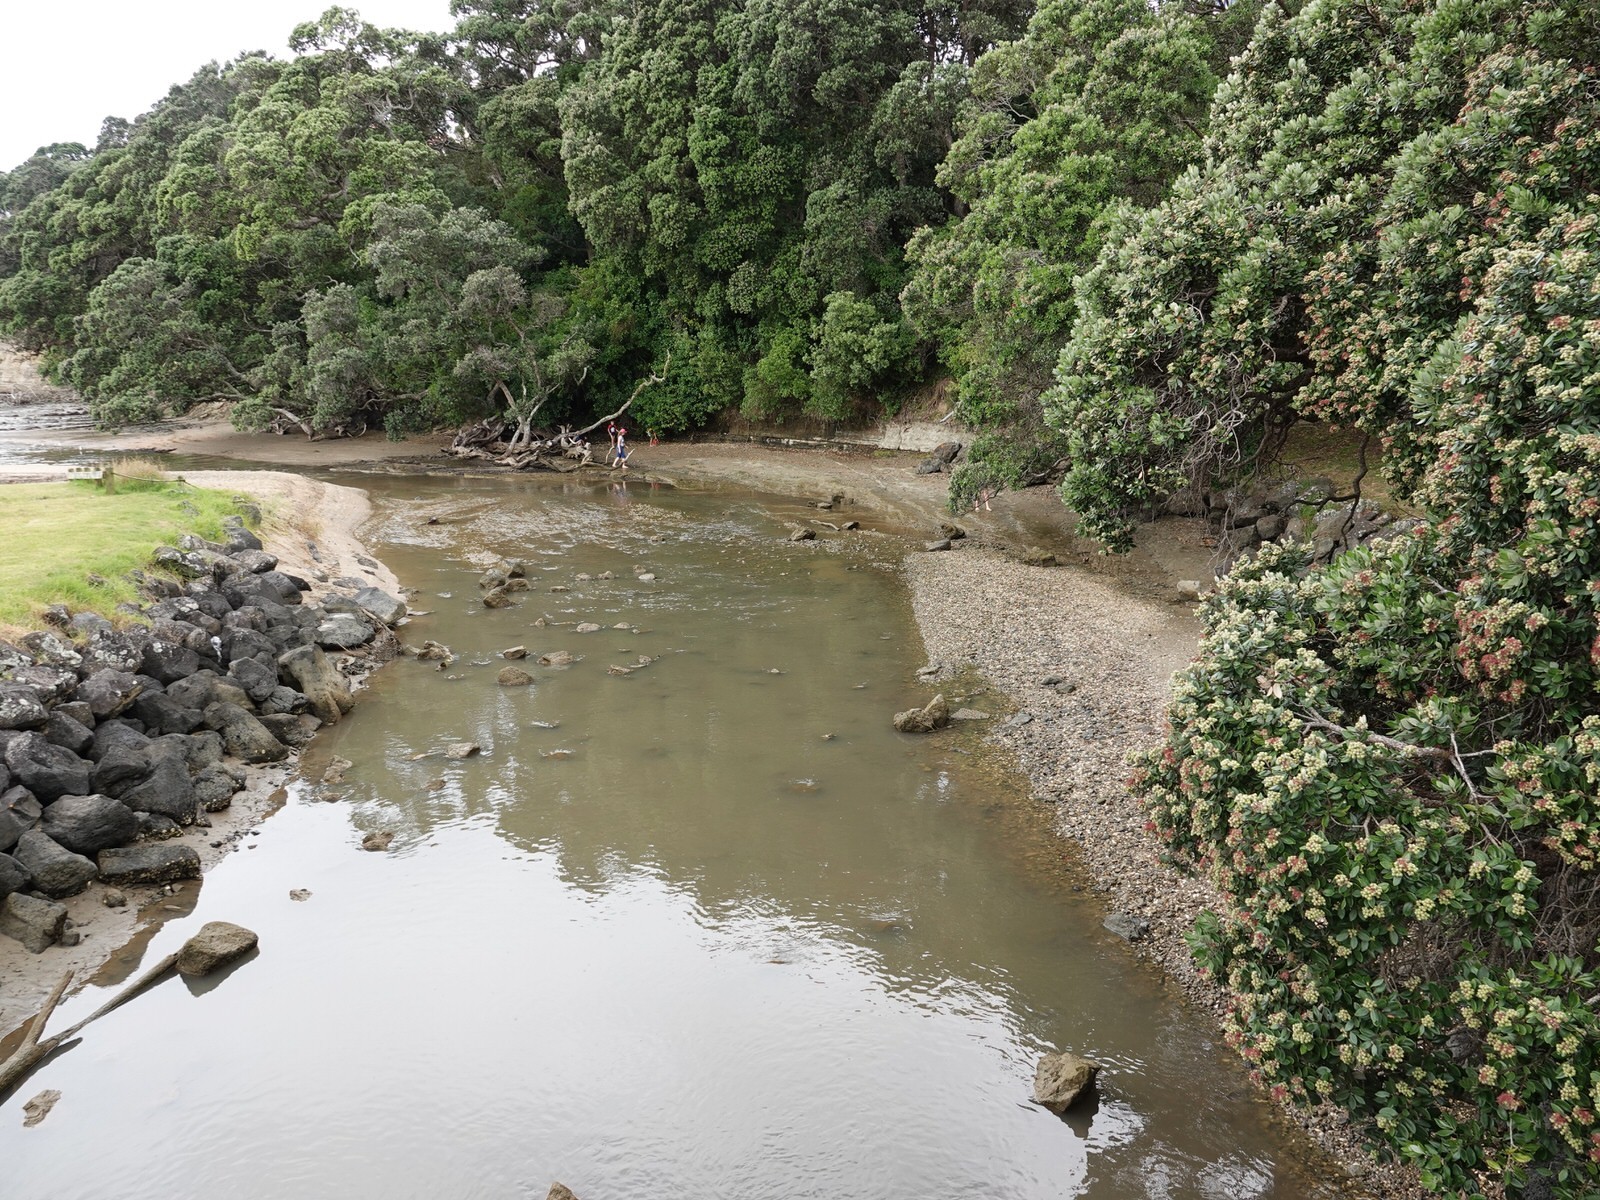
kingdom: Animalia
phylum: Chordata
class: Aves
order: Coraciiformes
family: Alcedinidae
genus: Todiramphus
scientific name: Todiramphus sanctus
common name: Sacred kingfisher
